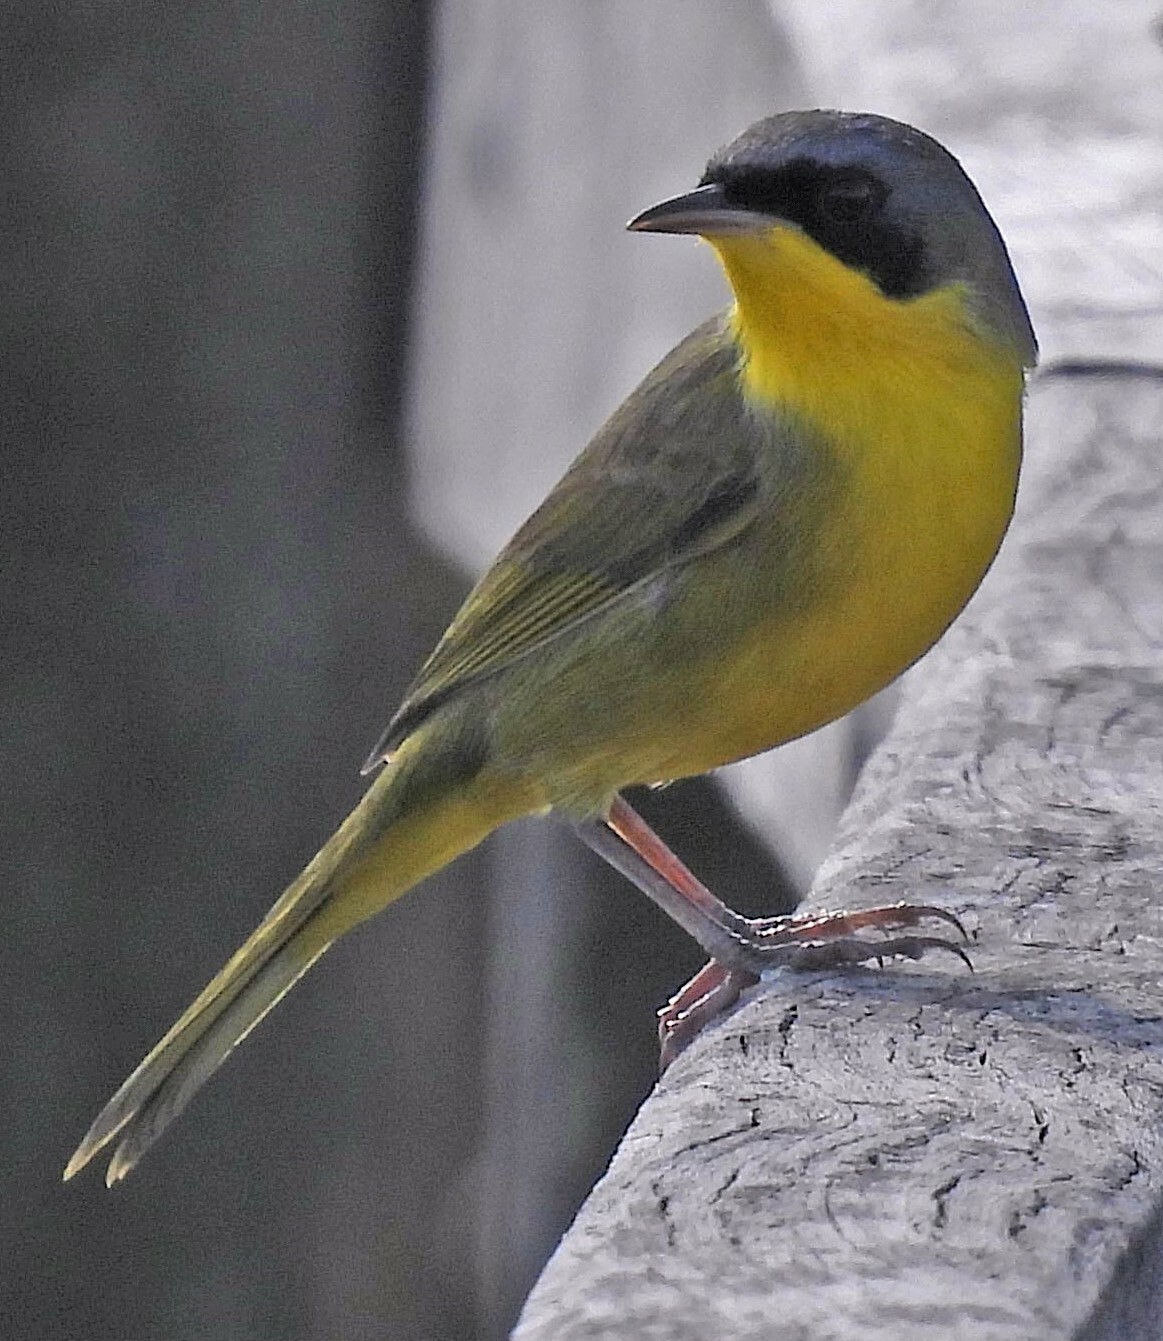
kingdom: Animalia
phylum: Chordata
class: Aves
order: Passeriformes
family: Parulidae
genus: Geothlypis
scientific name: Geothlypis velata
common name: Southern yellowthroat
